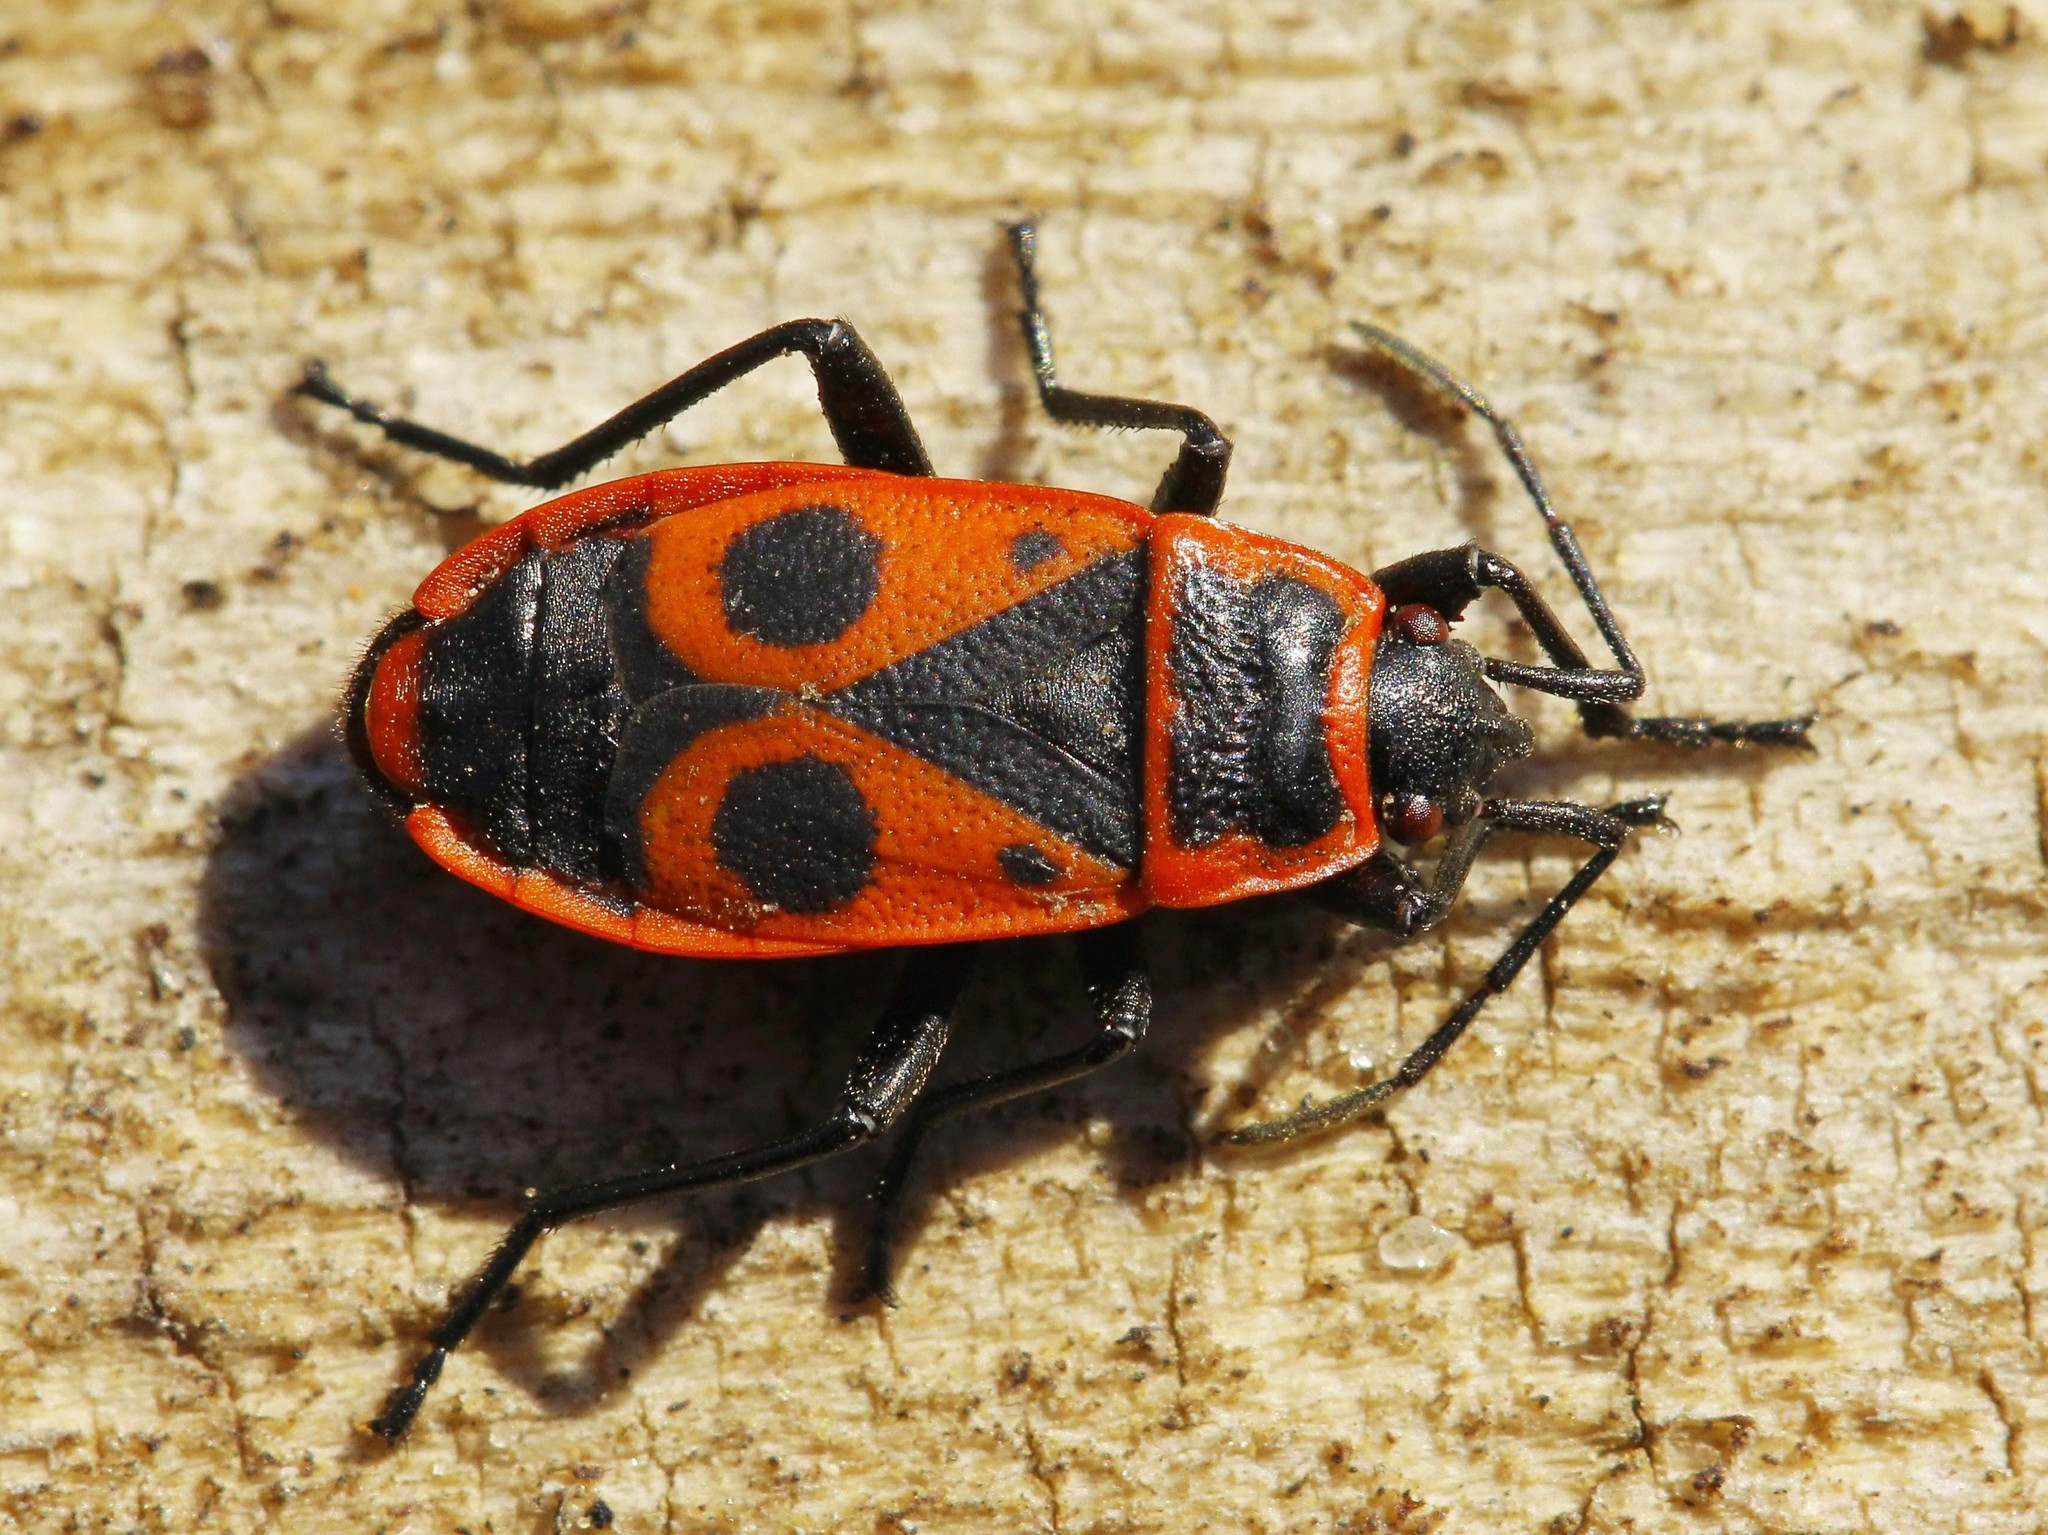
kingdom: Animalia
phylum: Arthropoda
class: Insecta
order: Hemiptera
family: Pyrrhocoridae
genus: Pyrrhocoris
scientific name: Pyrrhocoris apterus
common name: Firebug
